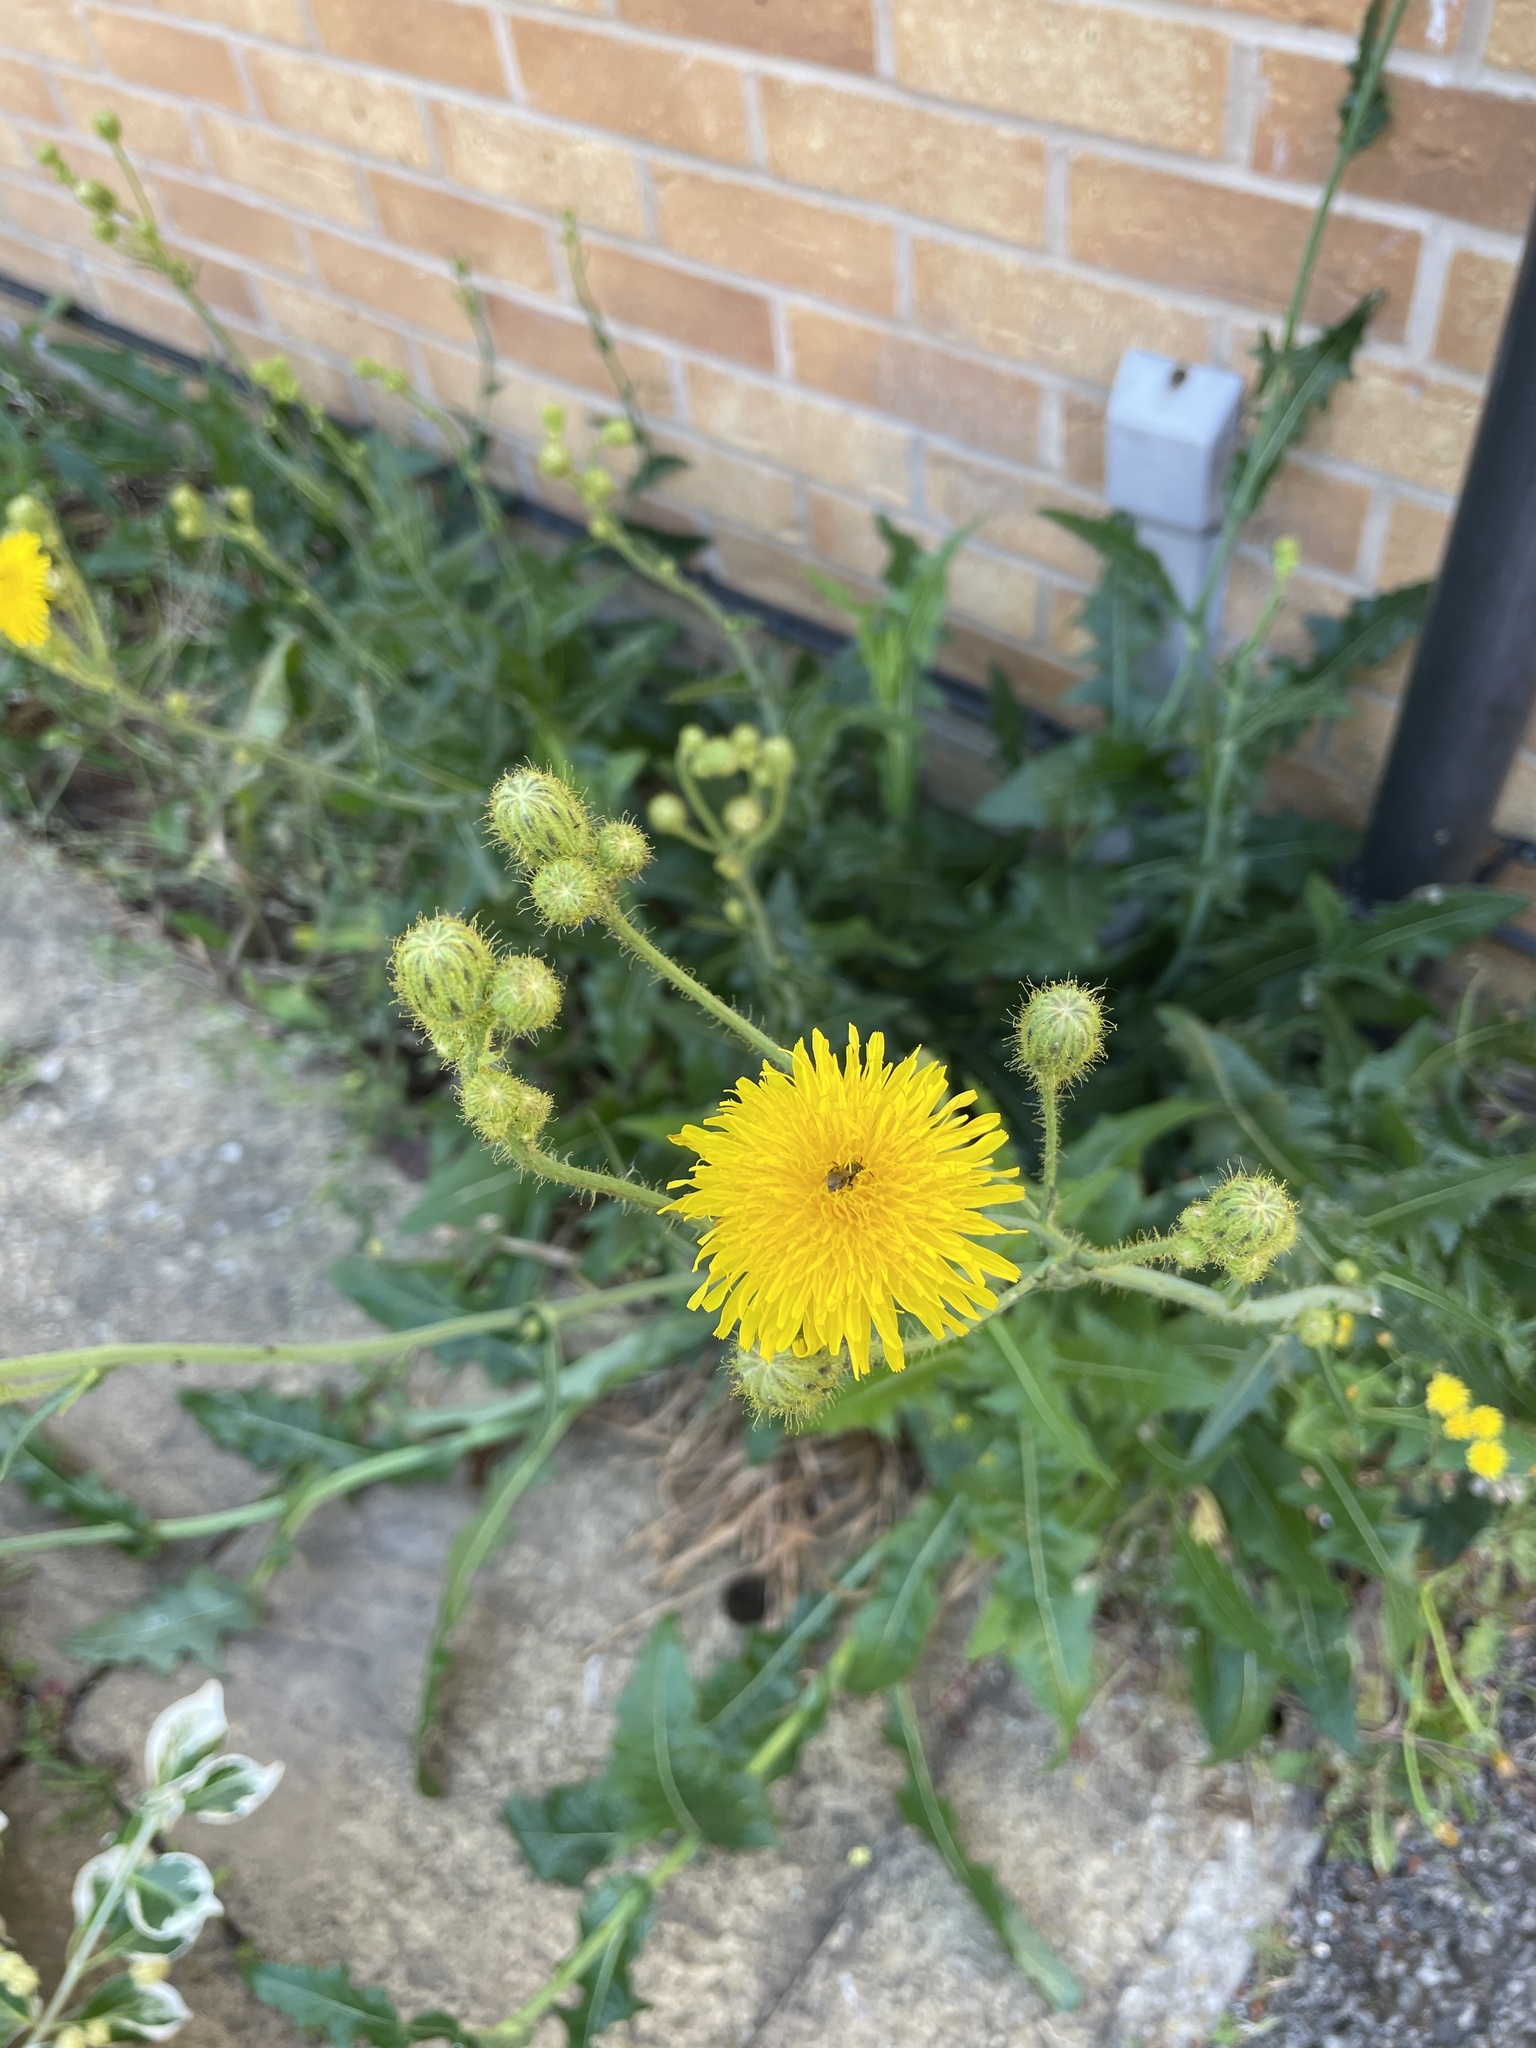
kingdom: Plantae
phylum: Tracheophyta
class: Magnoliopsida
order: Asterales
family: Asteraceae
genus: Sonchus
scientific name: Sonchus arvensis
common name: Perennial sow-thistle
